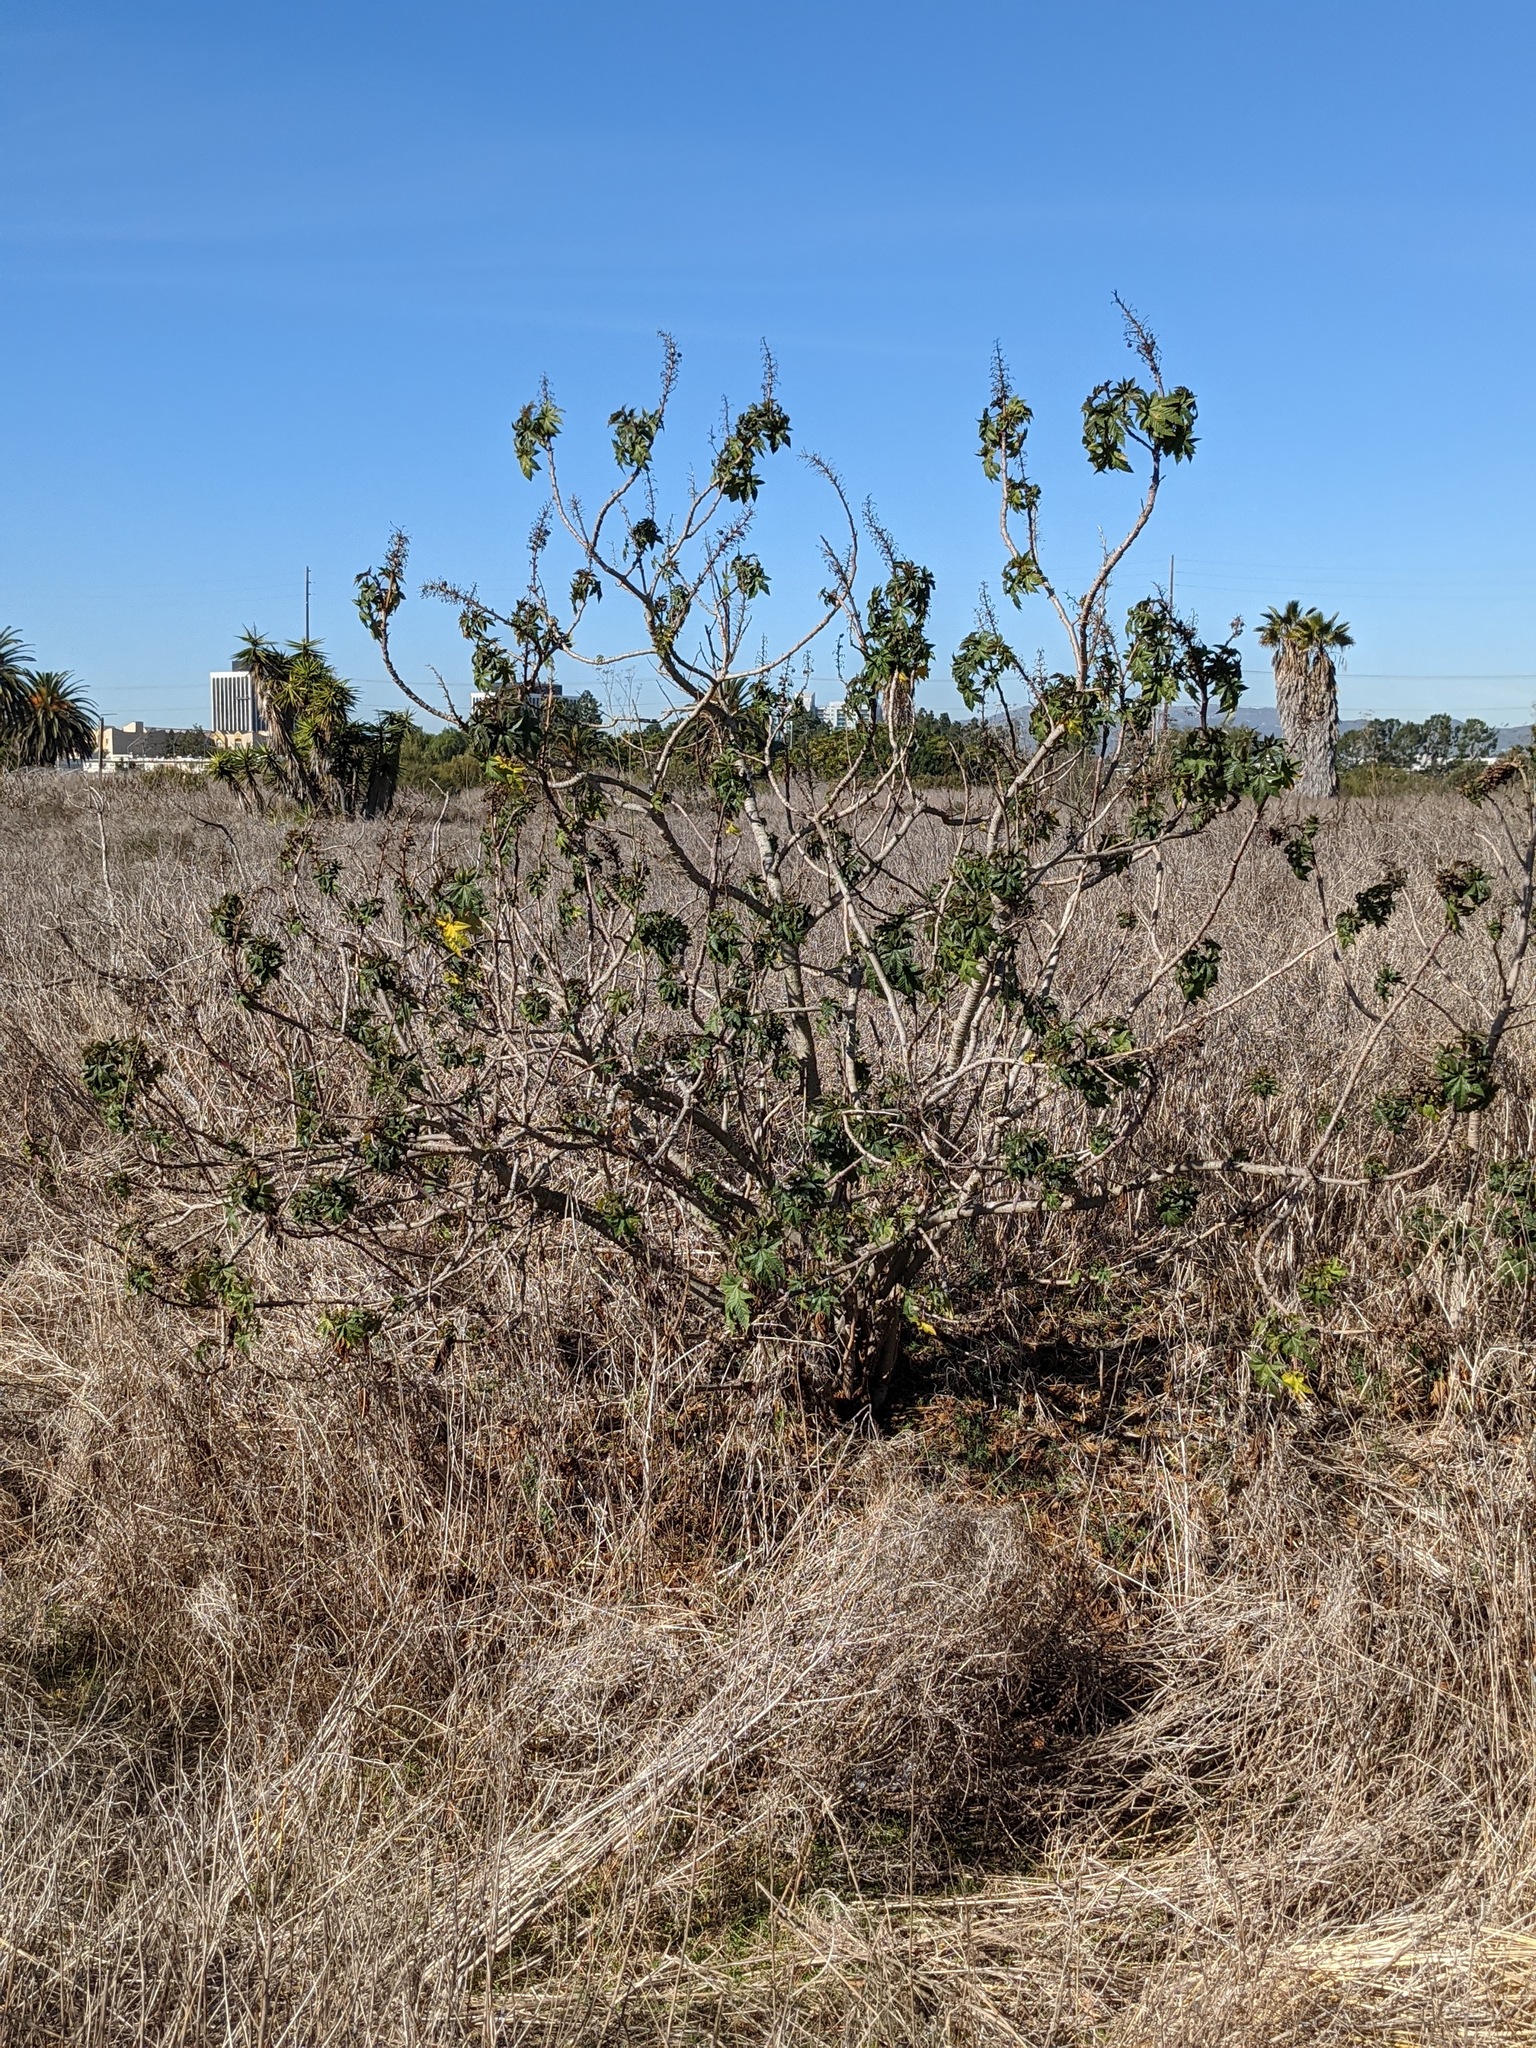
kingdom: Plantae
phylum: Tracheophyta
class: Magnoliopsida
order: Malpighiales
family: Euphorbiaceae
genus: Ricinus
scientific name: Ricinus communis
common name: Castor-oil-plant
